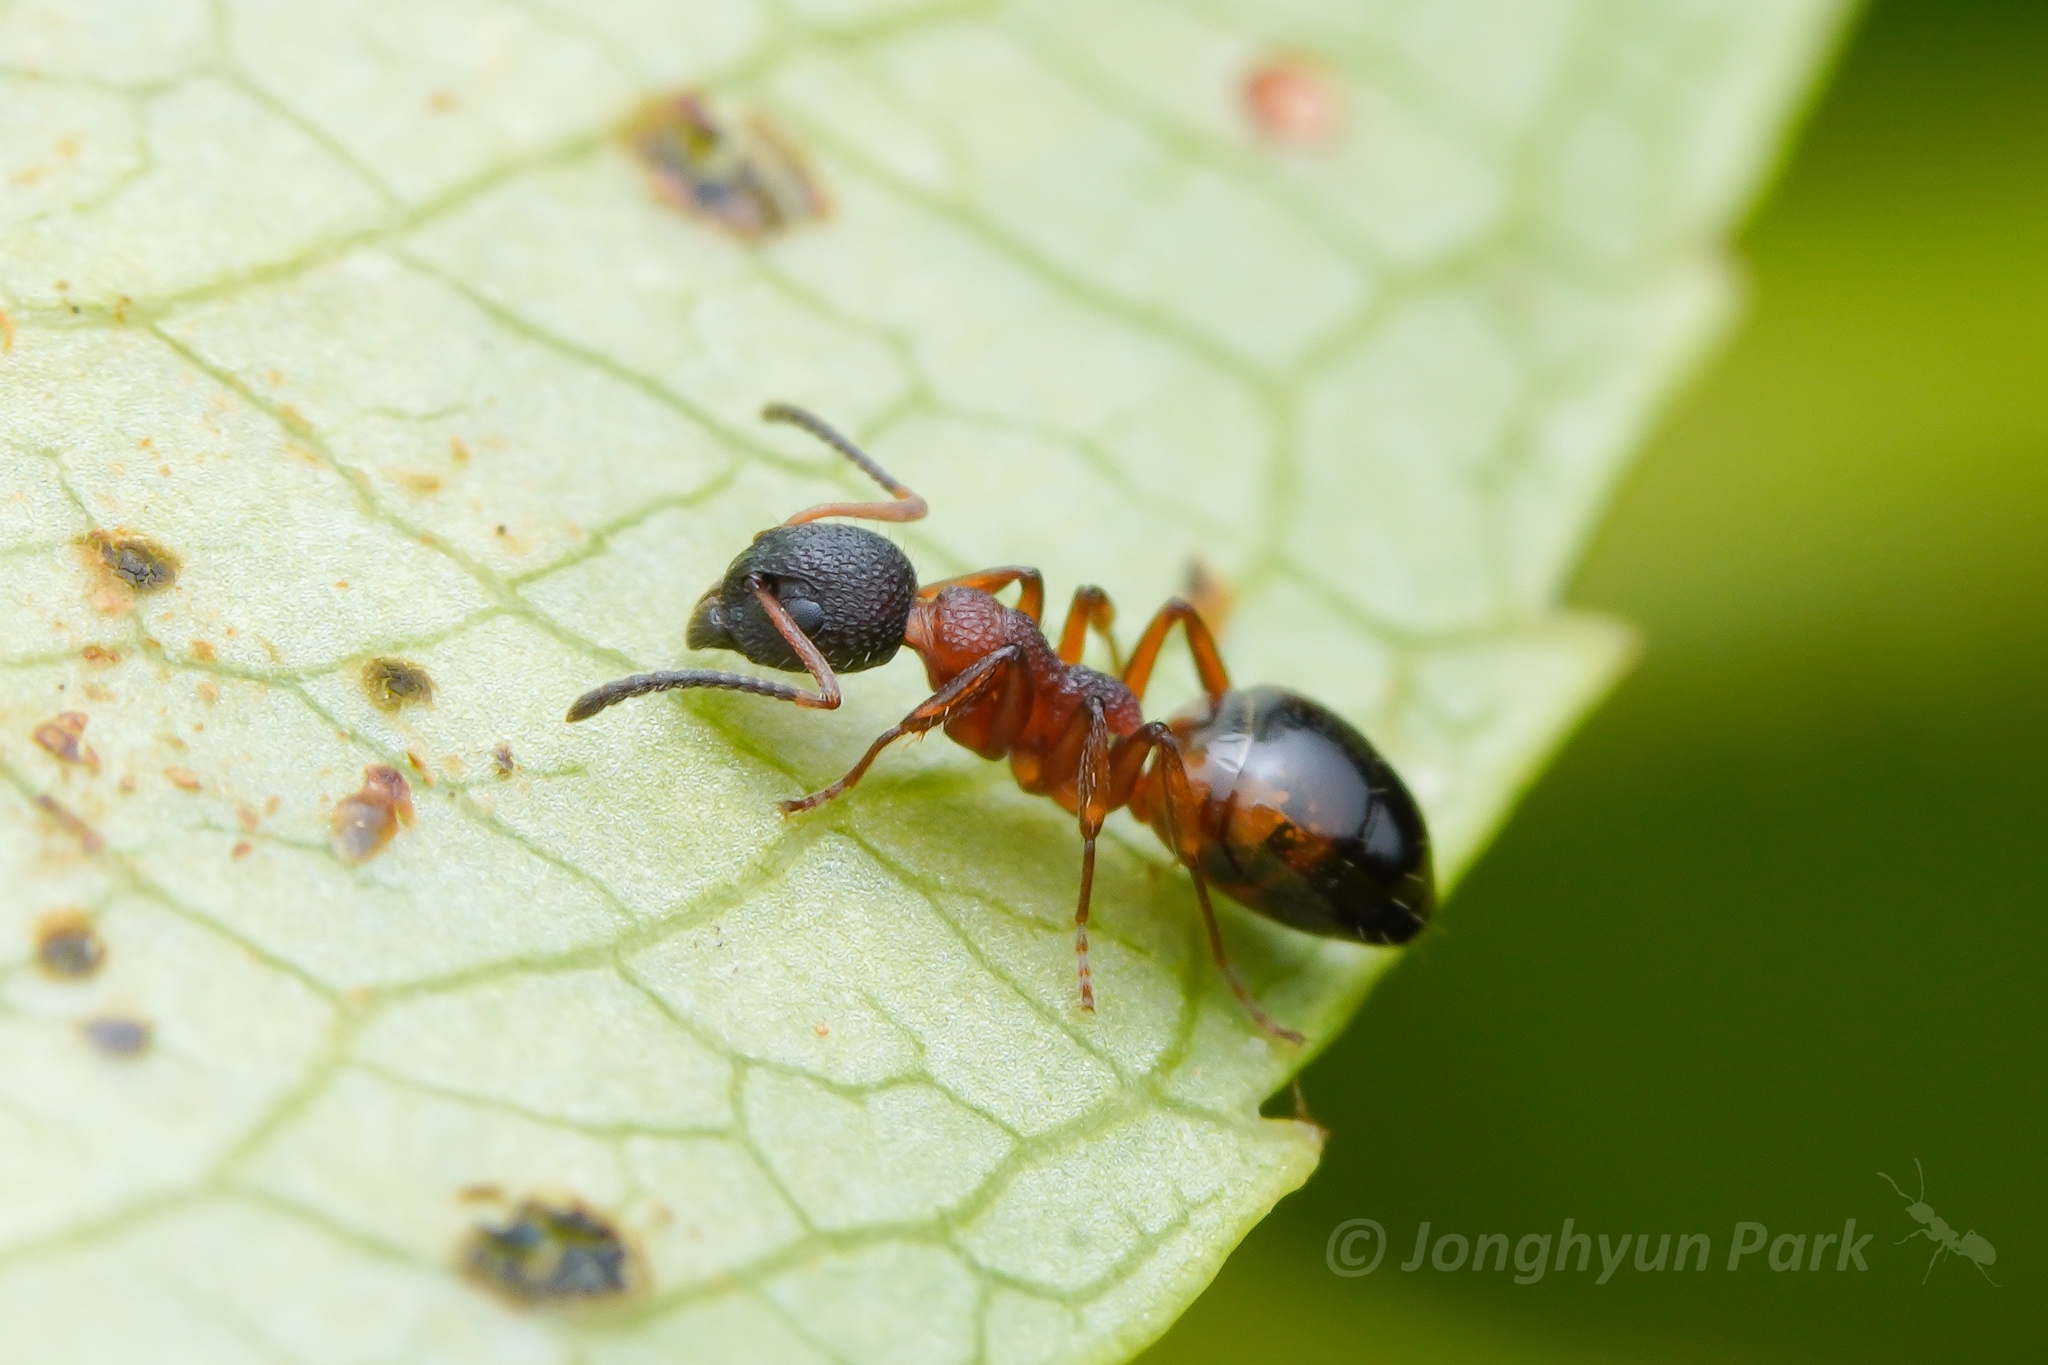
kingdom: Animalia
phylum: Arthropoda
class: Insecta
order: Hymenoptera
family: Formicidae
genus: Dolichoderus
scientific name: Dolichoderus plagiatus
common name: Mottled dolichoderus
